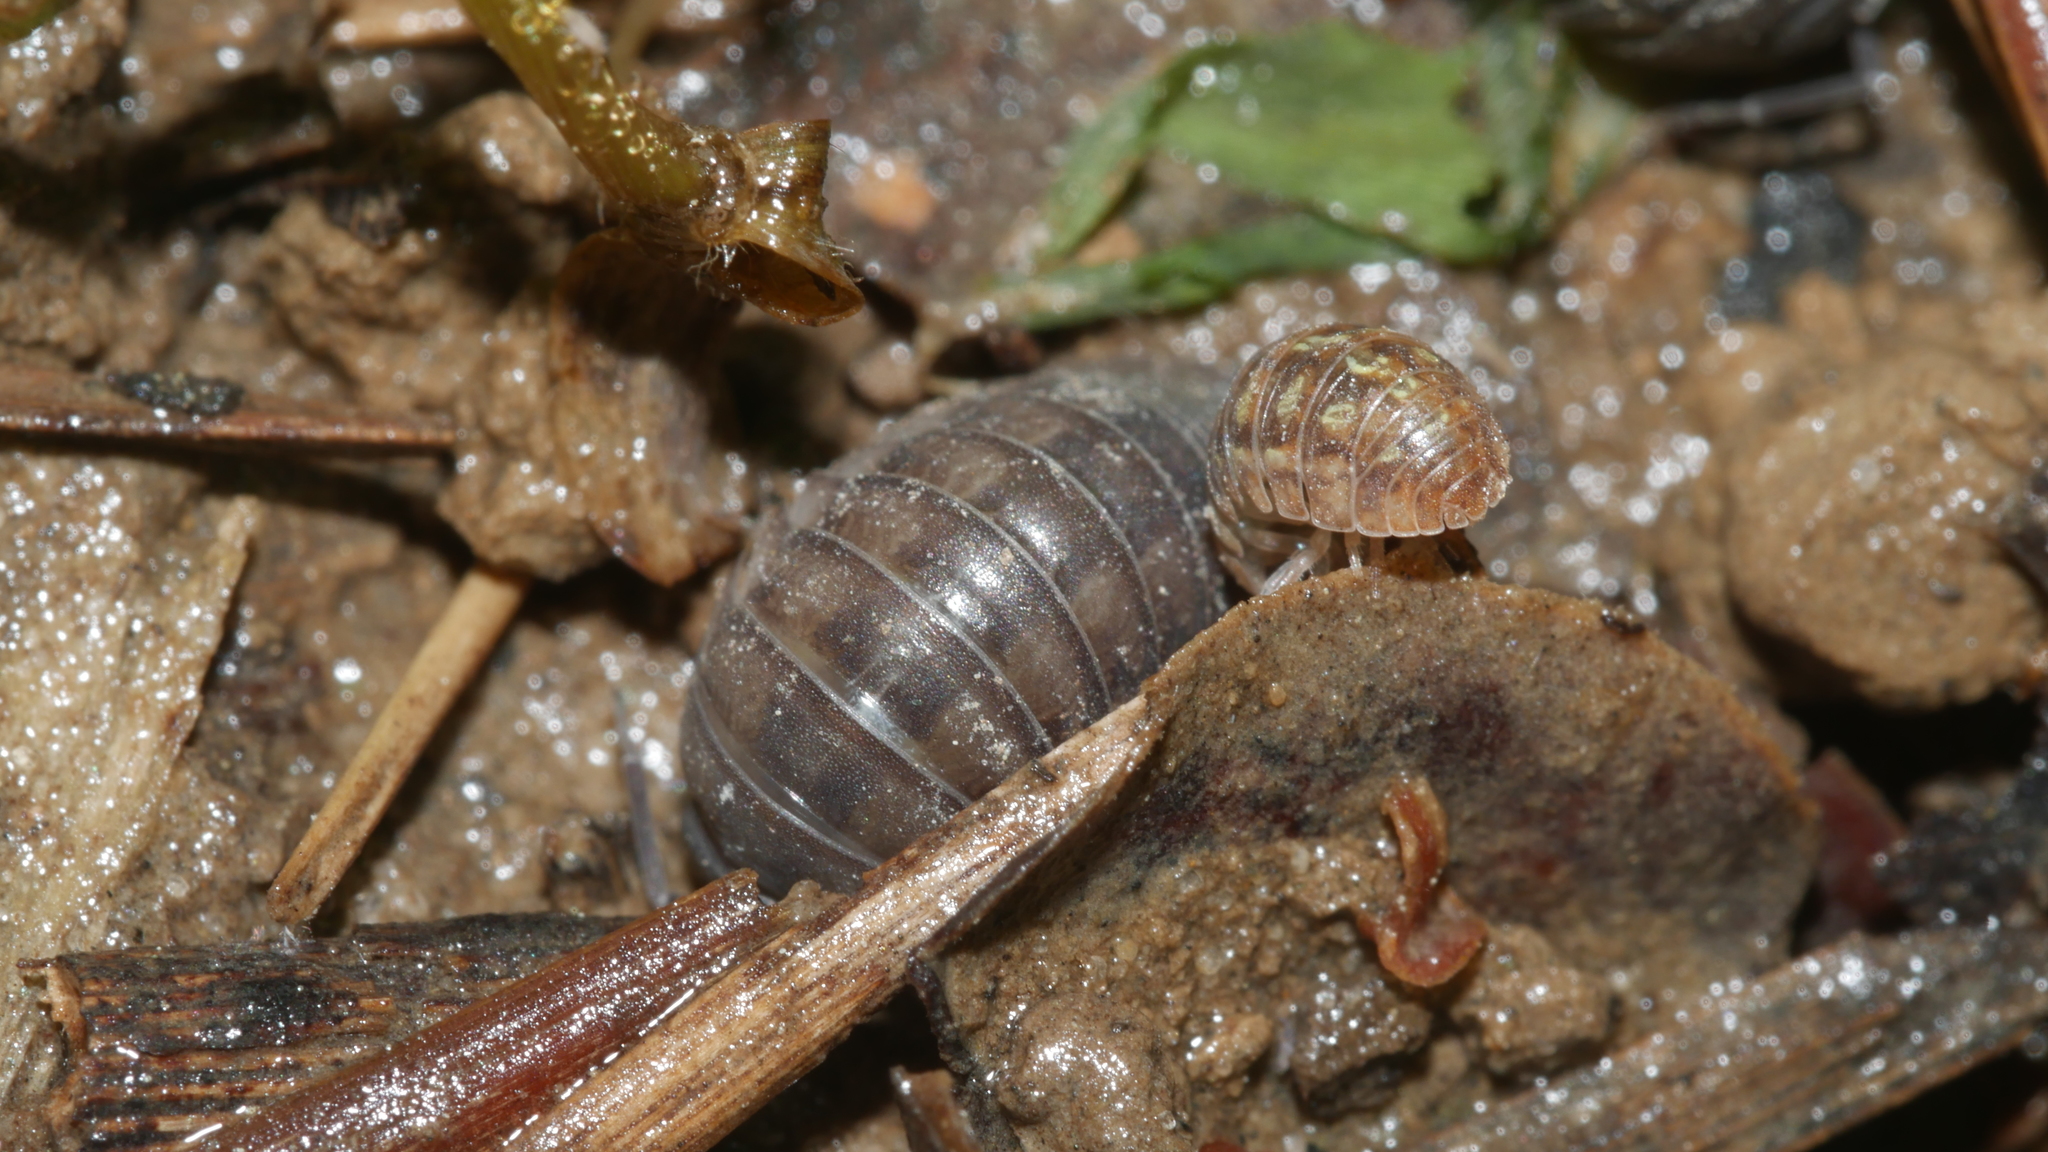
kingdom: Animalia
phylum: Arthropoda
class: Malacostraca
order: Isopoda
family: Armadillidiidae
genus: Armadillidium
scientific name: Armadillidium nasatum
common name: Isopod
